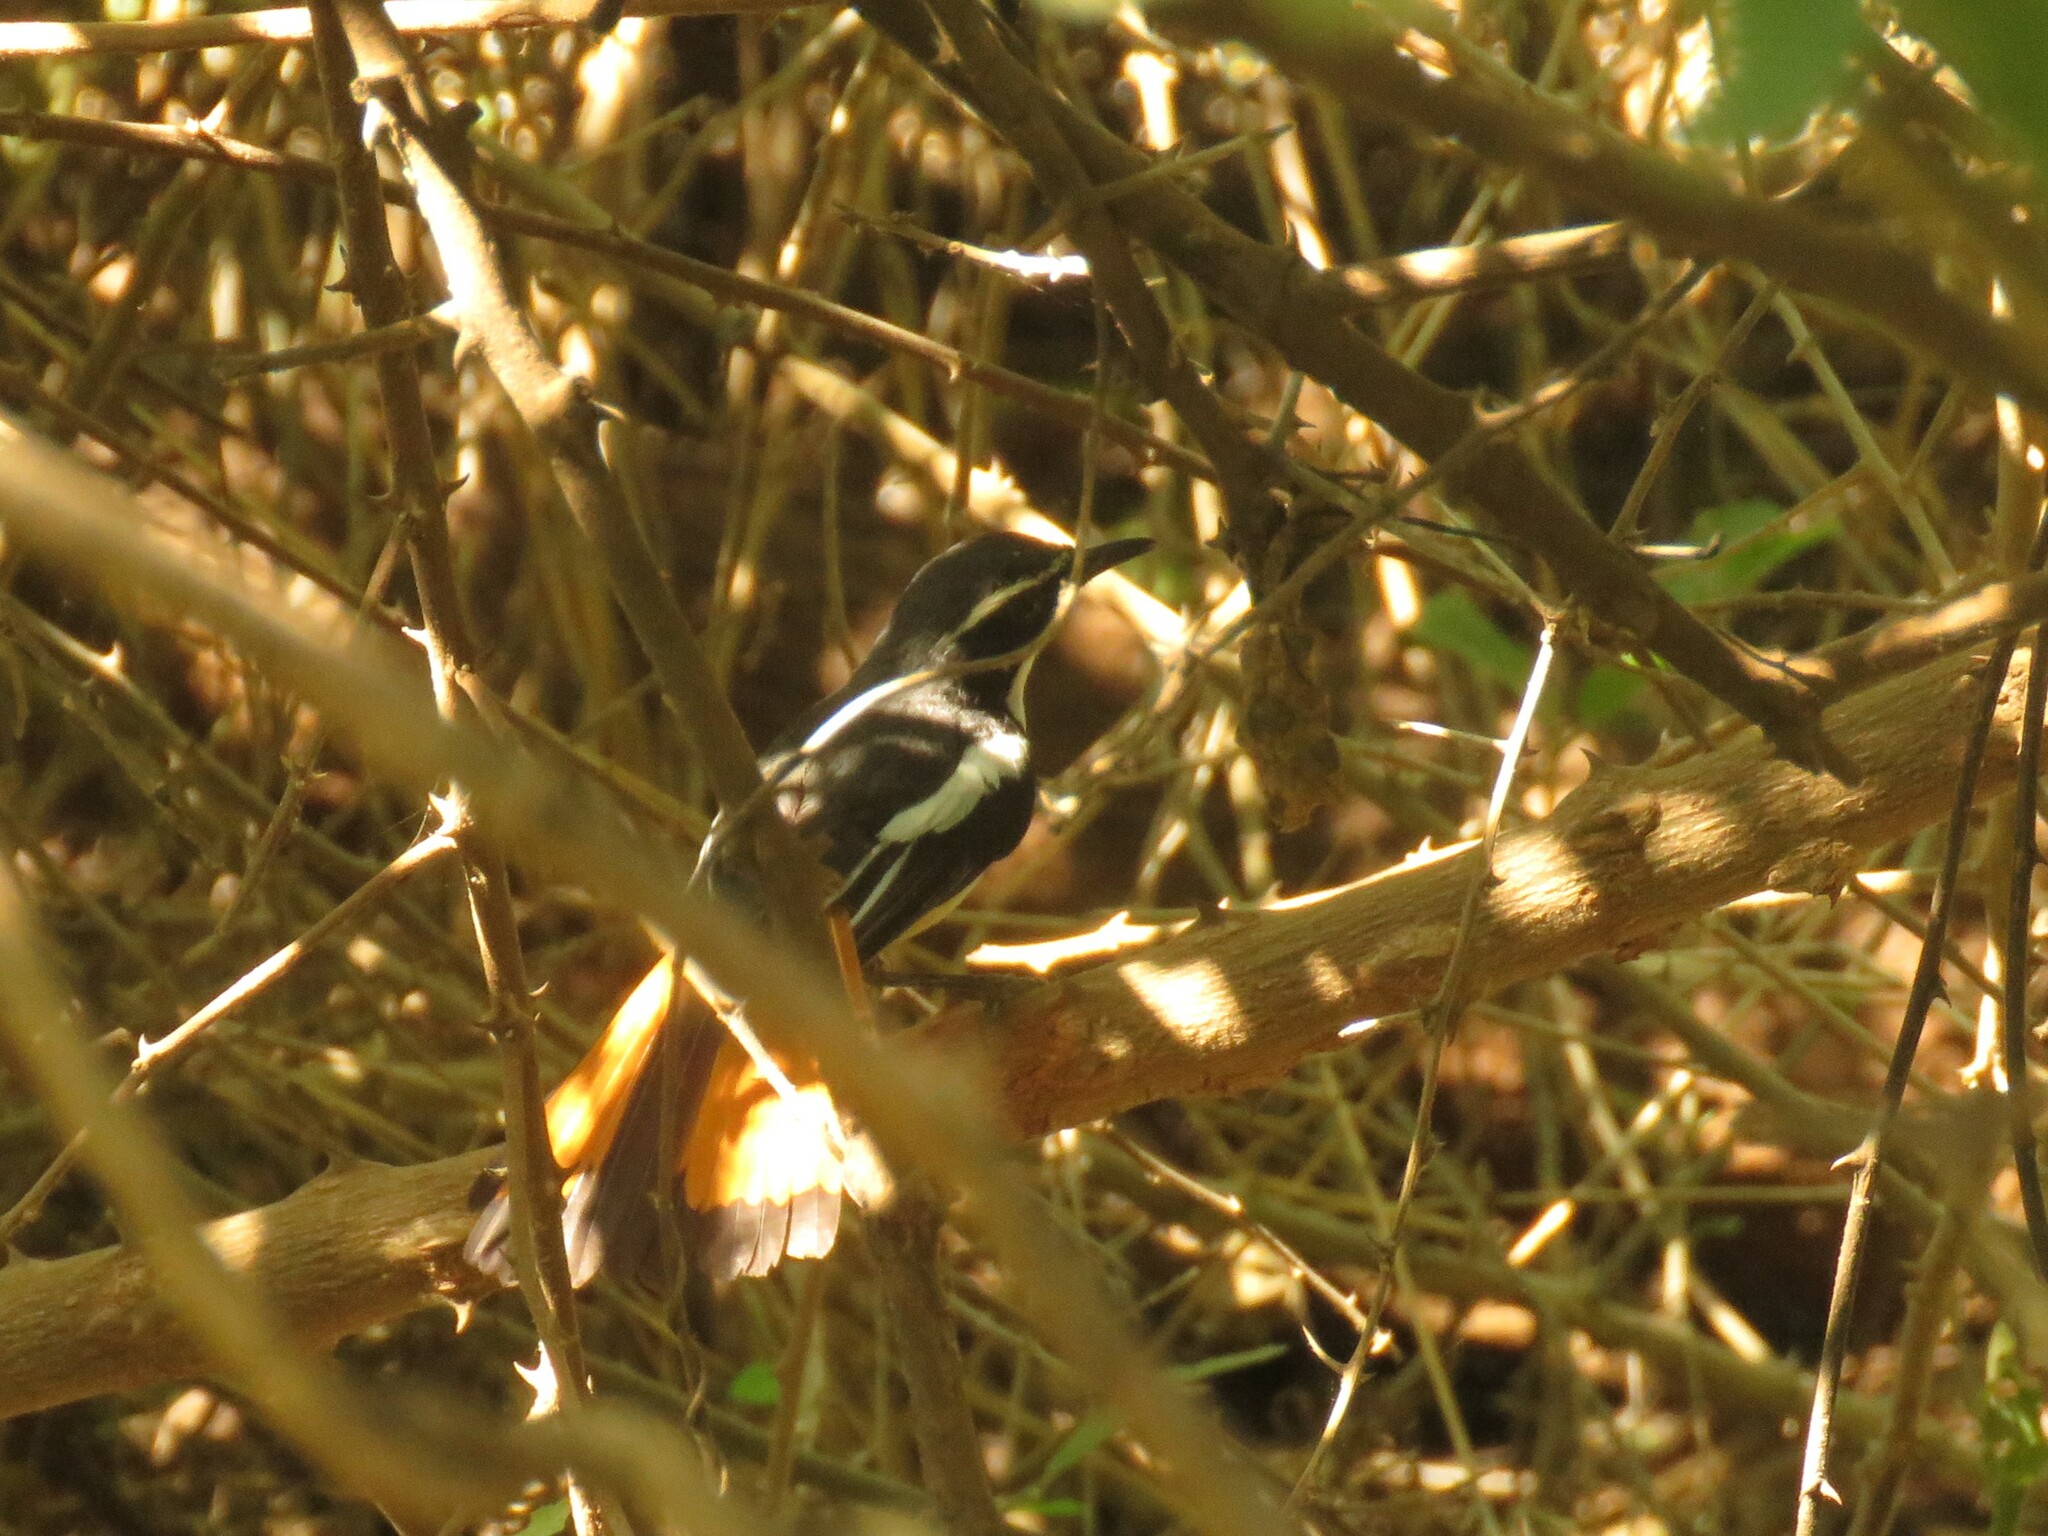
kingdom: Animalia
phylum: Chordata
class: Aves
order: Passeriformes
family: Muscicapidae
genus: Cossypha
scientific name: Cossypha humeralis
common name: White-throated robin-chat
